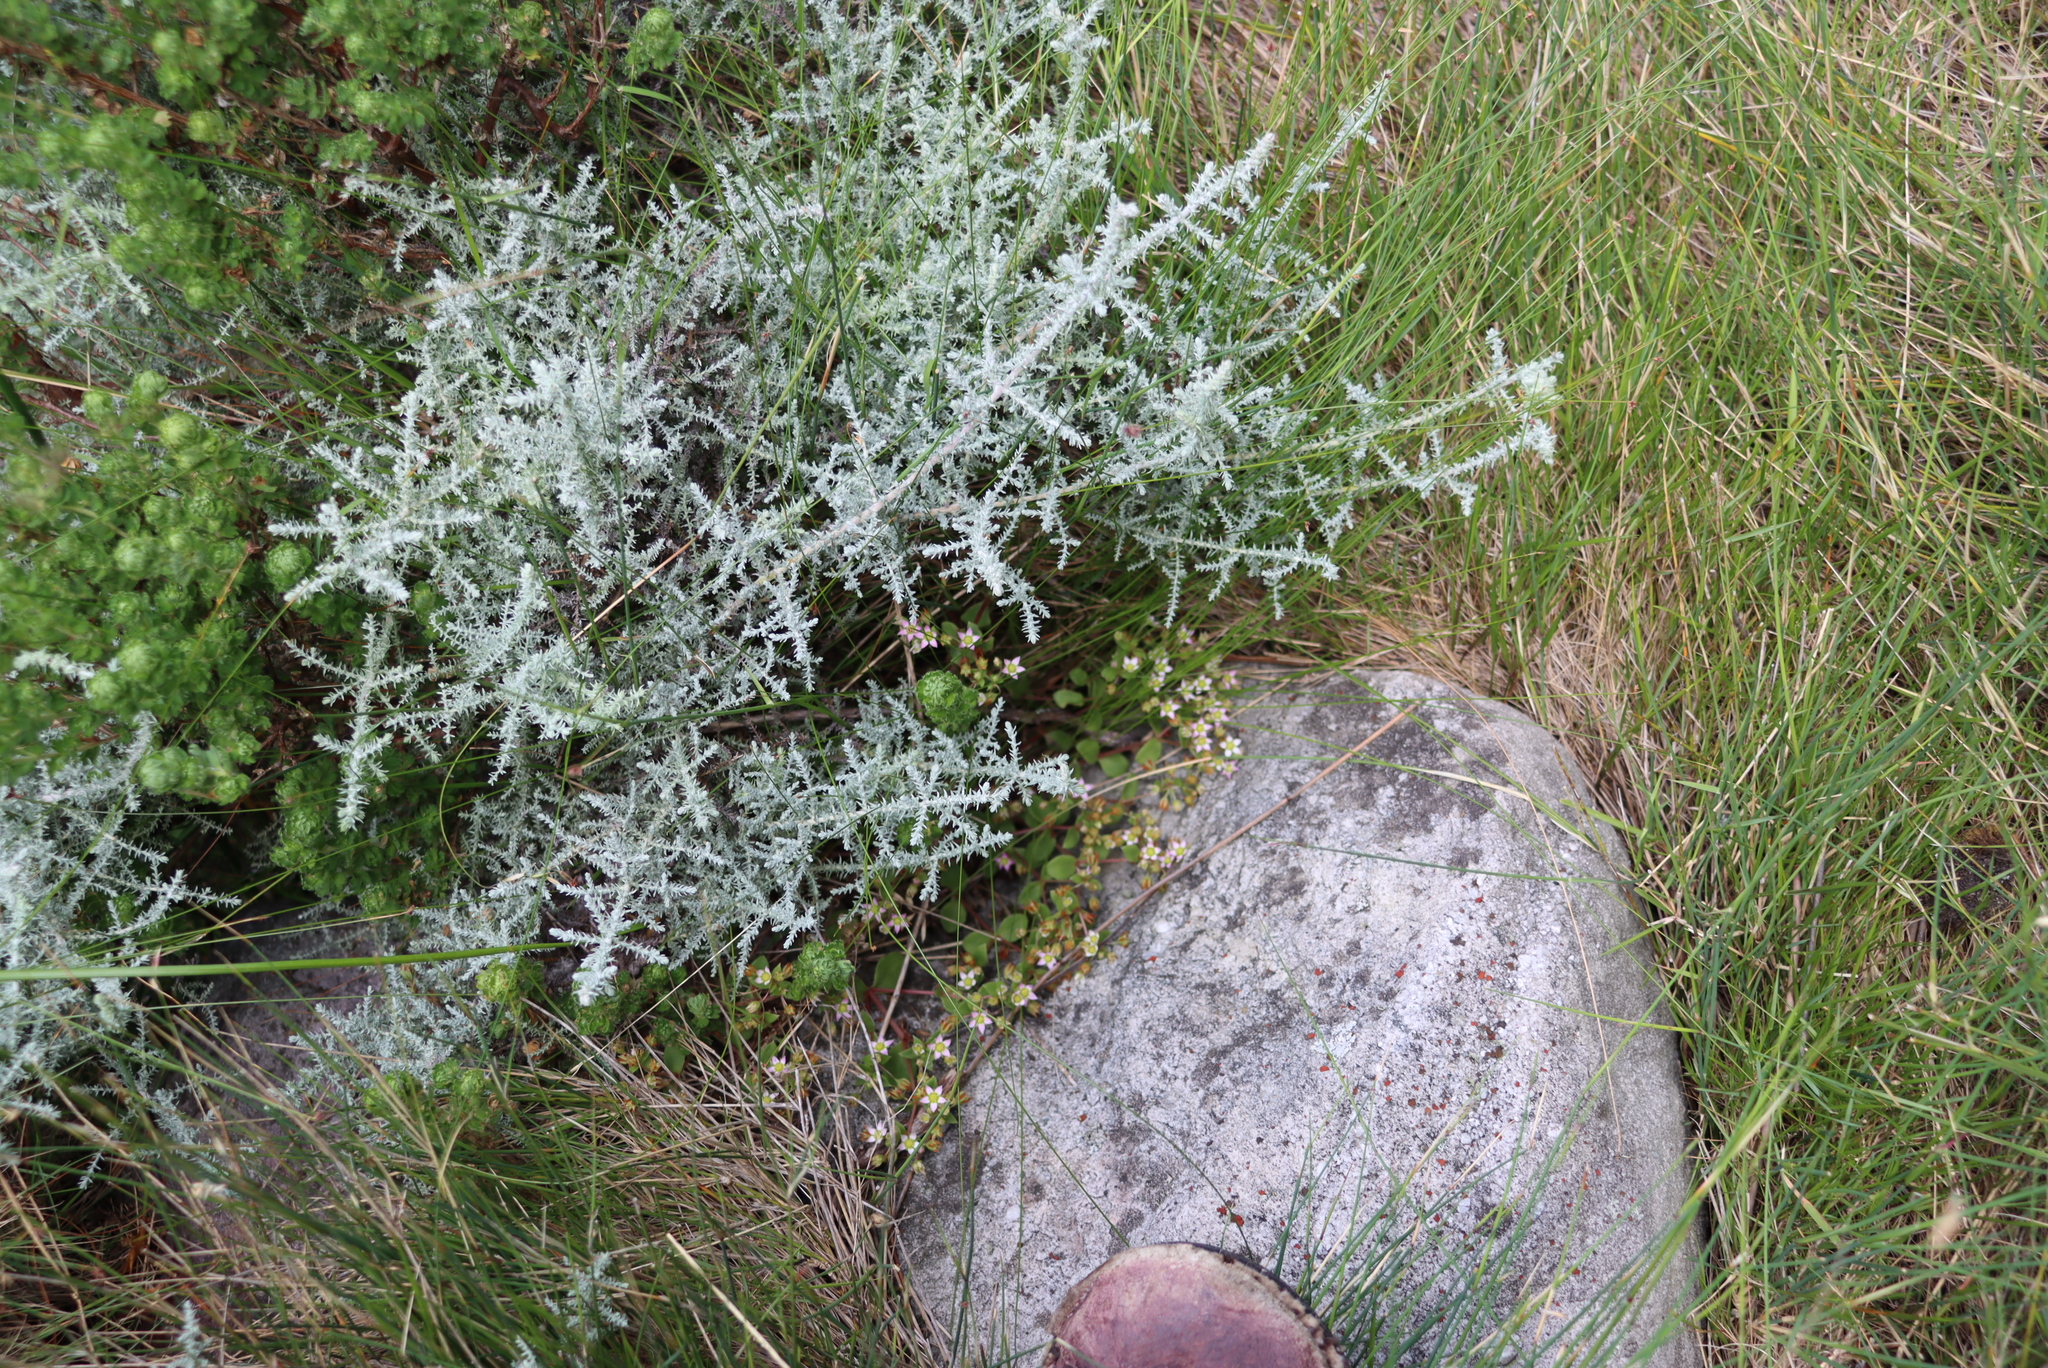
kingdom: Plantae
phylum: Tracheophyta
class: Magnoliopsida
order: Asterales
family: Asteraceae
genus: Seriphium
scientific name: Seriphium plumosum
